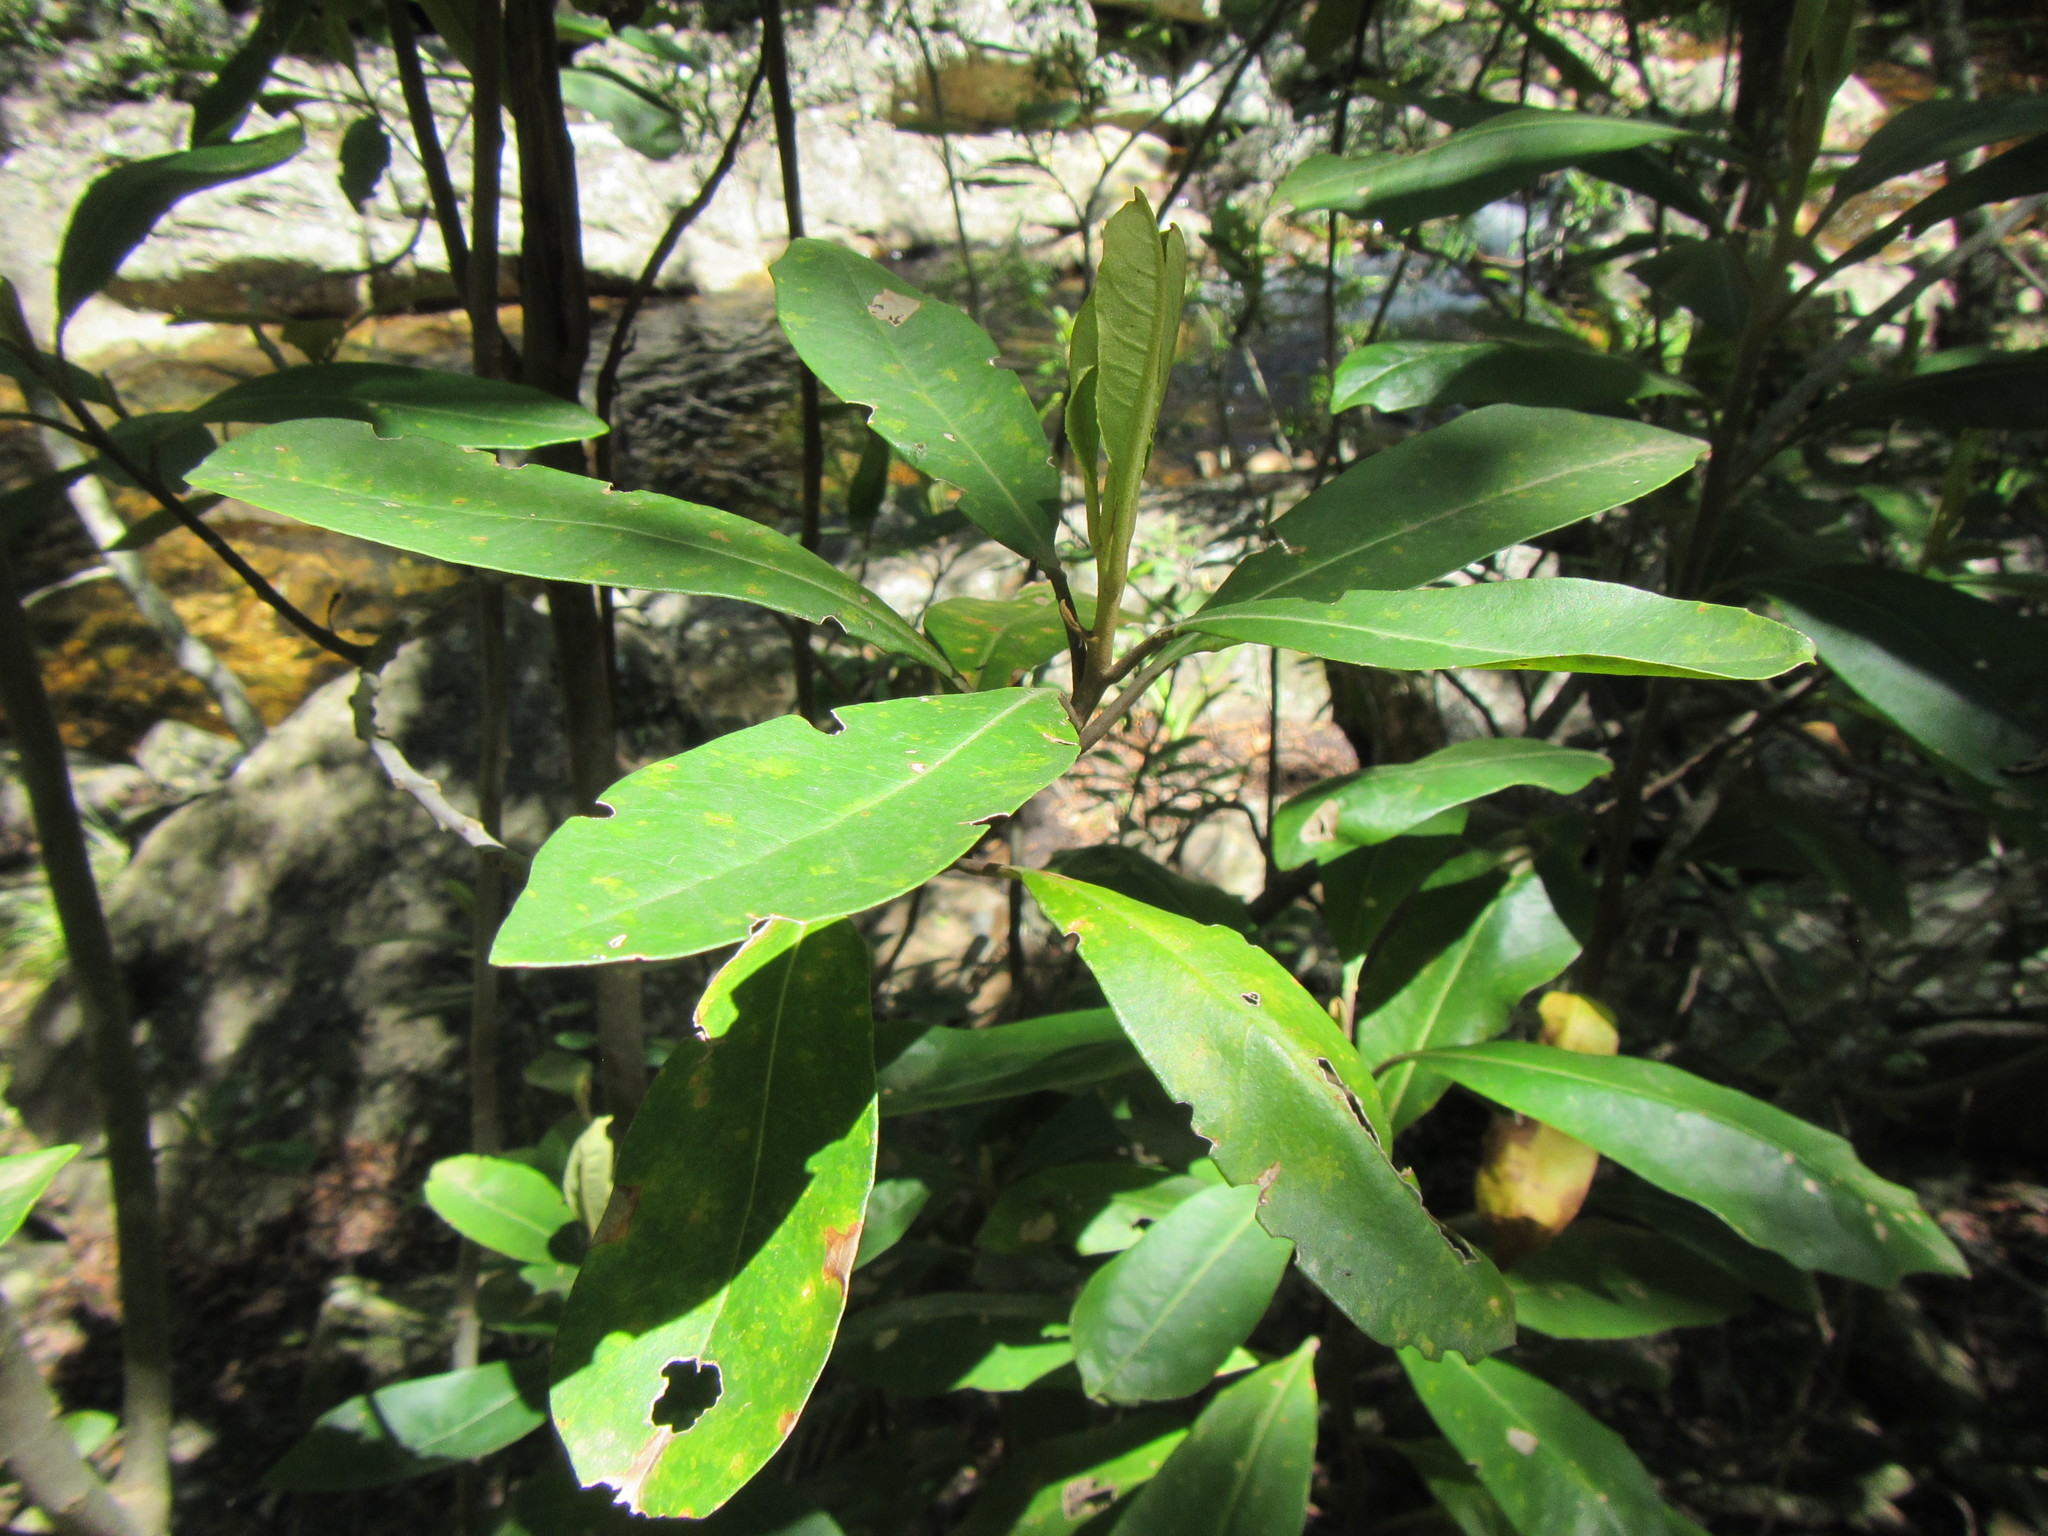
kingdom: Plantae
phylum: Tracheophyta
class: Magnoliopsida
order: Asterales
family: Asteraceae
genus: Brachylaena
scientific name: Brachylaena glabra
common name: Malabar silver-oak
